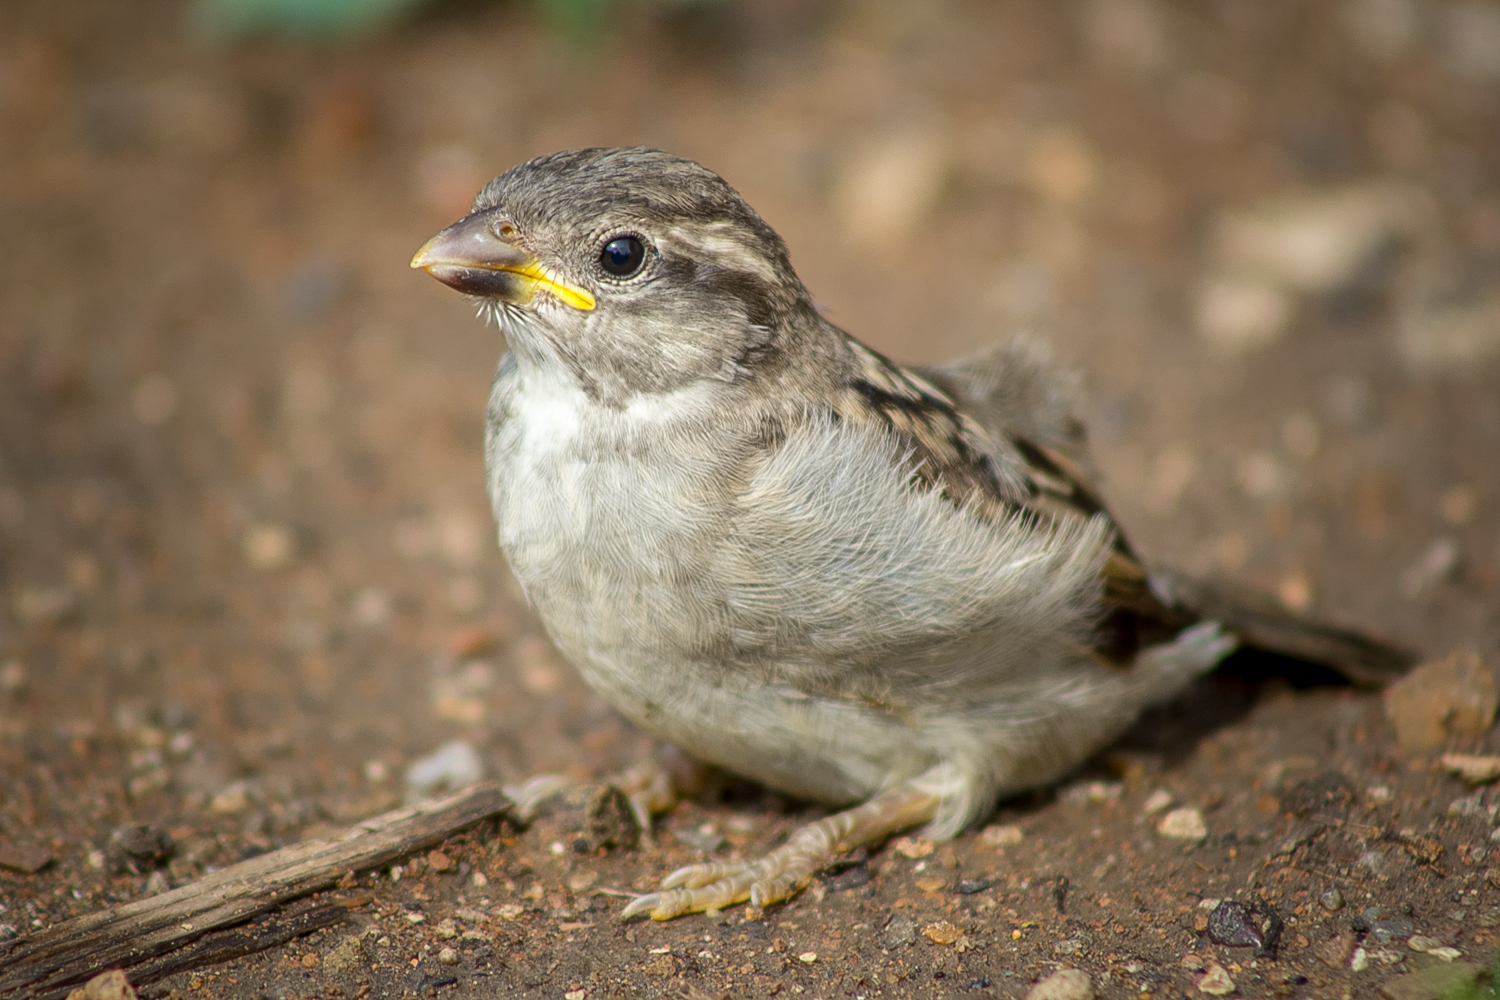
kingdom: Animalia
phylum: Chordata
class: Aves
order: Passeriformes
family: Passeridae
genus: Passer
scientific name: Passer domesticus
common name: House sparrow
